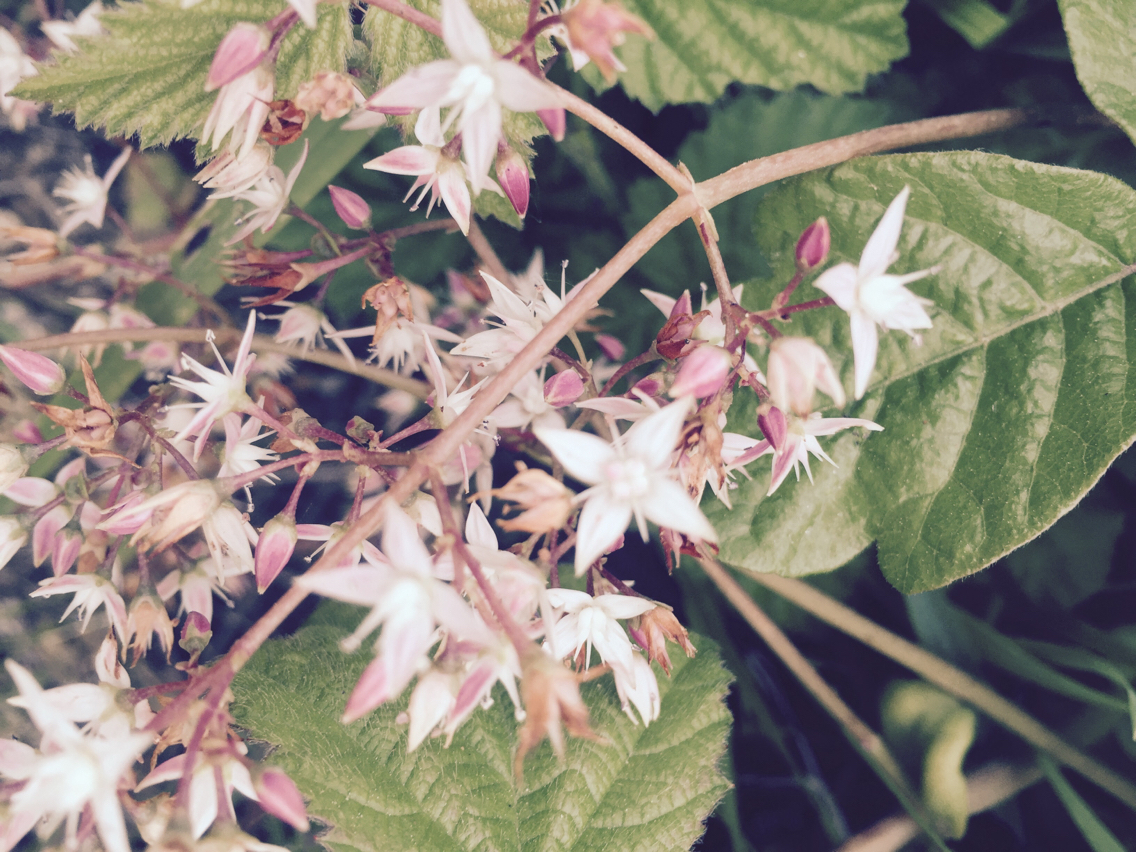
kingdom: Plantae
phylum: Tracheophyta
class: Magnoliopsida
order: Saxifragales
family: Crassulaceae
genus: Crassula
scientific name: Crassula multicava
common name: Cape province pygmyweed
